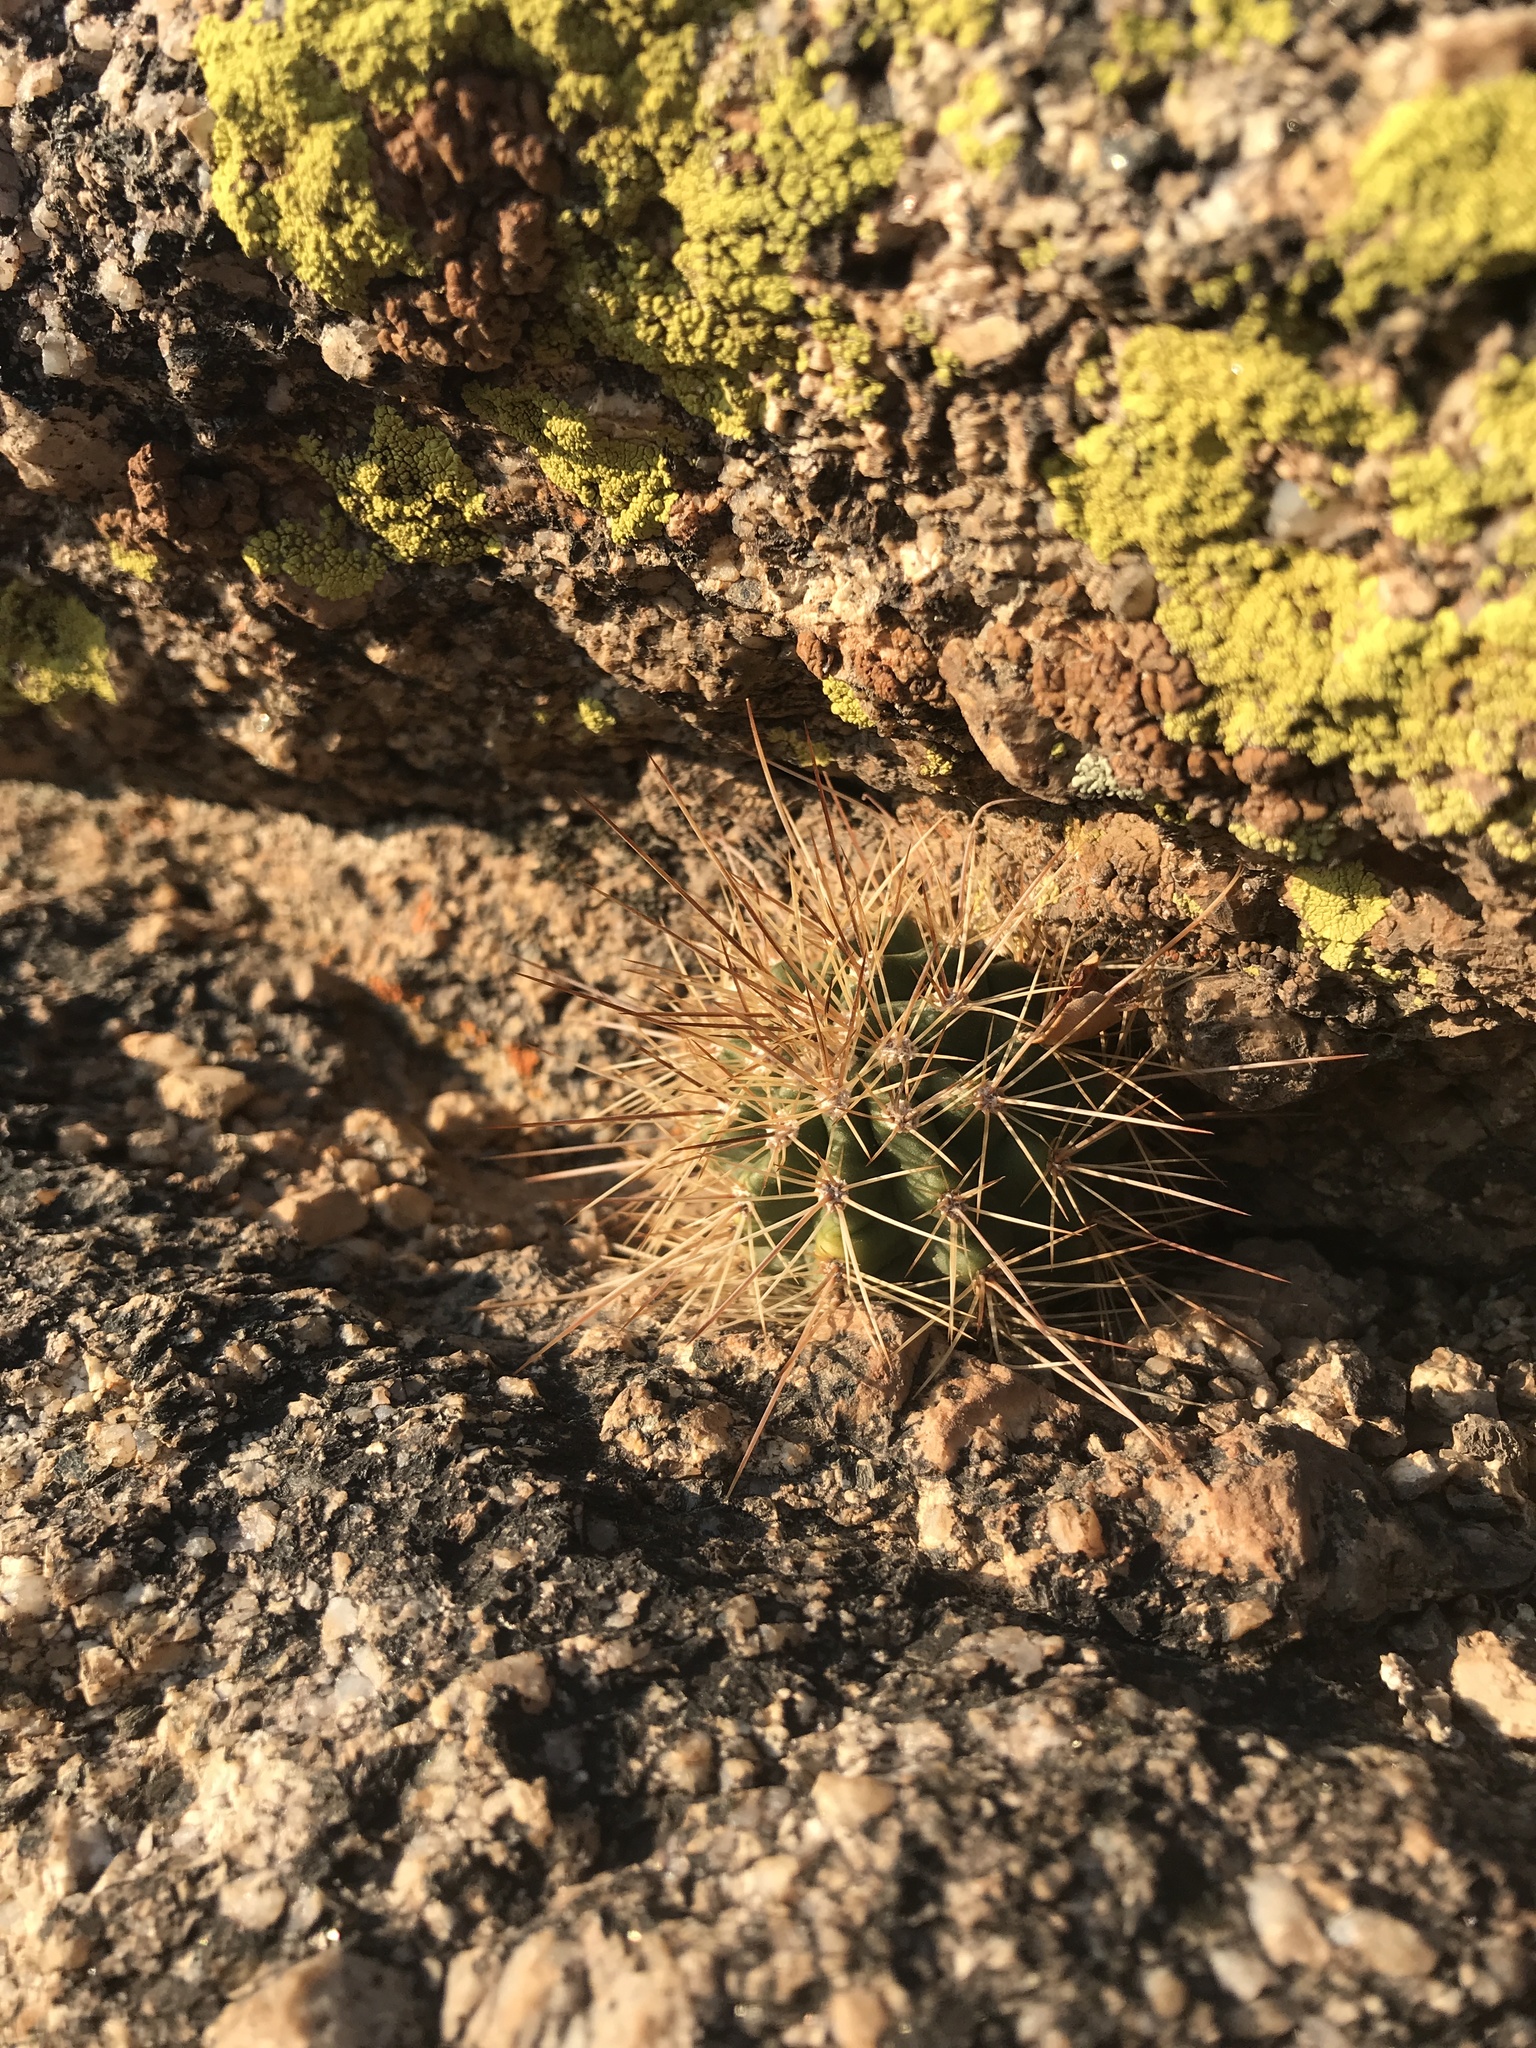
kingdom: Plantae
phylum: Tracheophyta
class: Magnoliopsida
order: Caryophyllales
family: Cactaceae
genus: Echinocereus
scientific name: Echinocereus coccineus
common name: Scarlet hedgehog cactus
